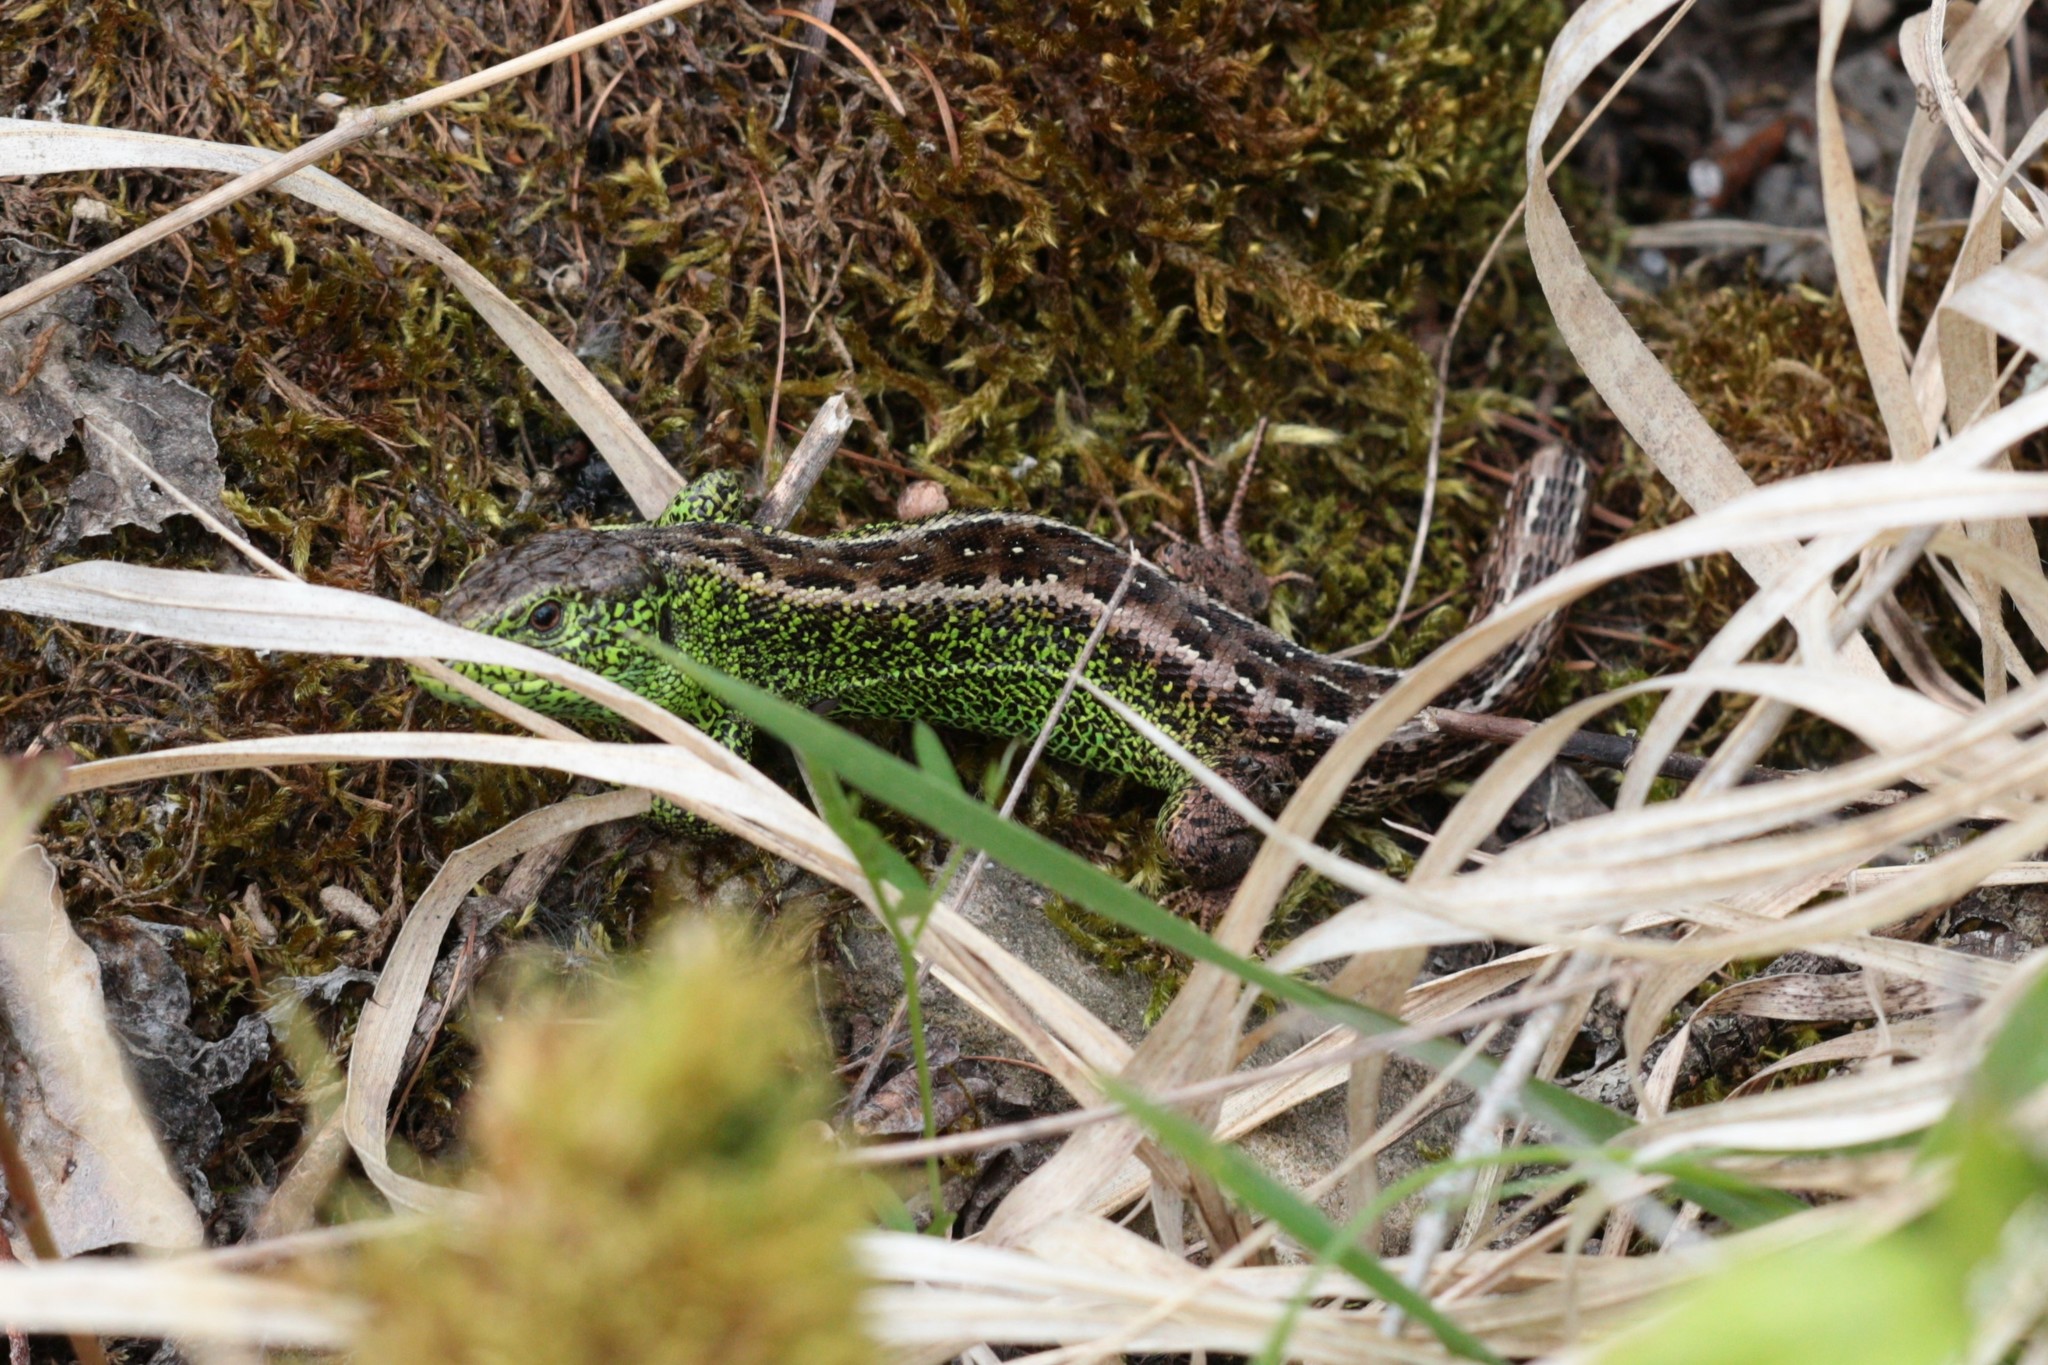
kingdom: Animalia
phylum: Chordata
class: Squamata
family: Lacertidae
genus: Lacerta
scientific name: Lacerta agilis
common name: Sand lizard
